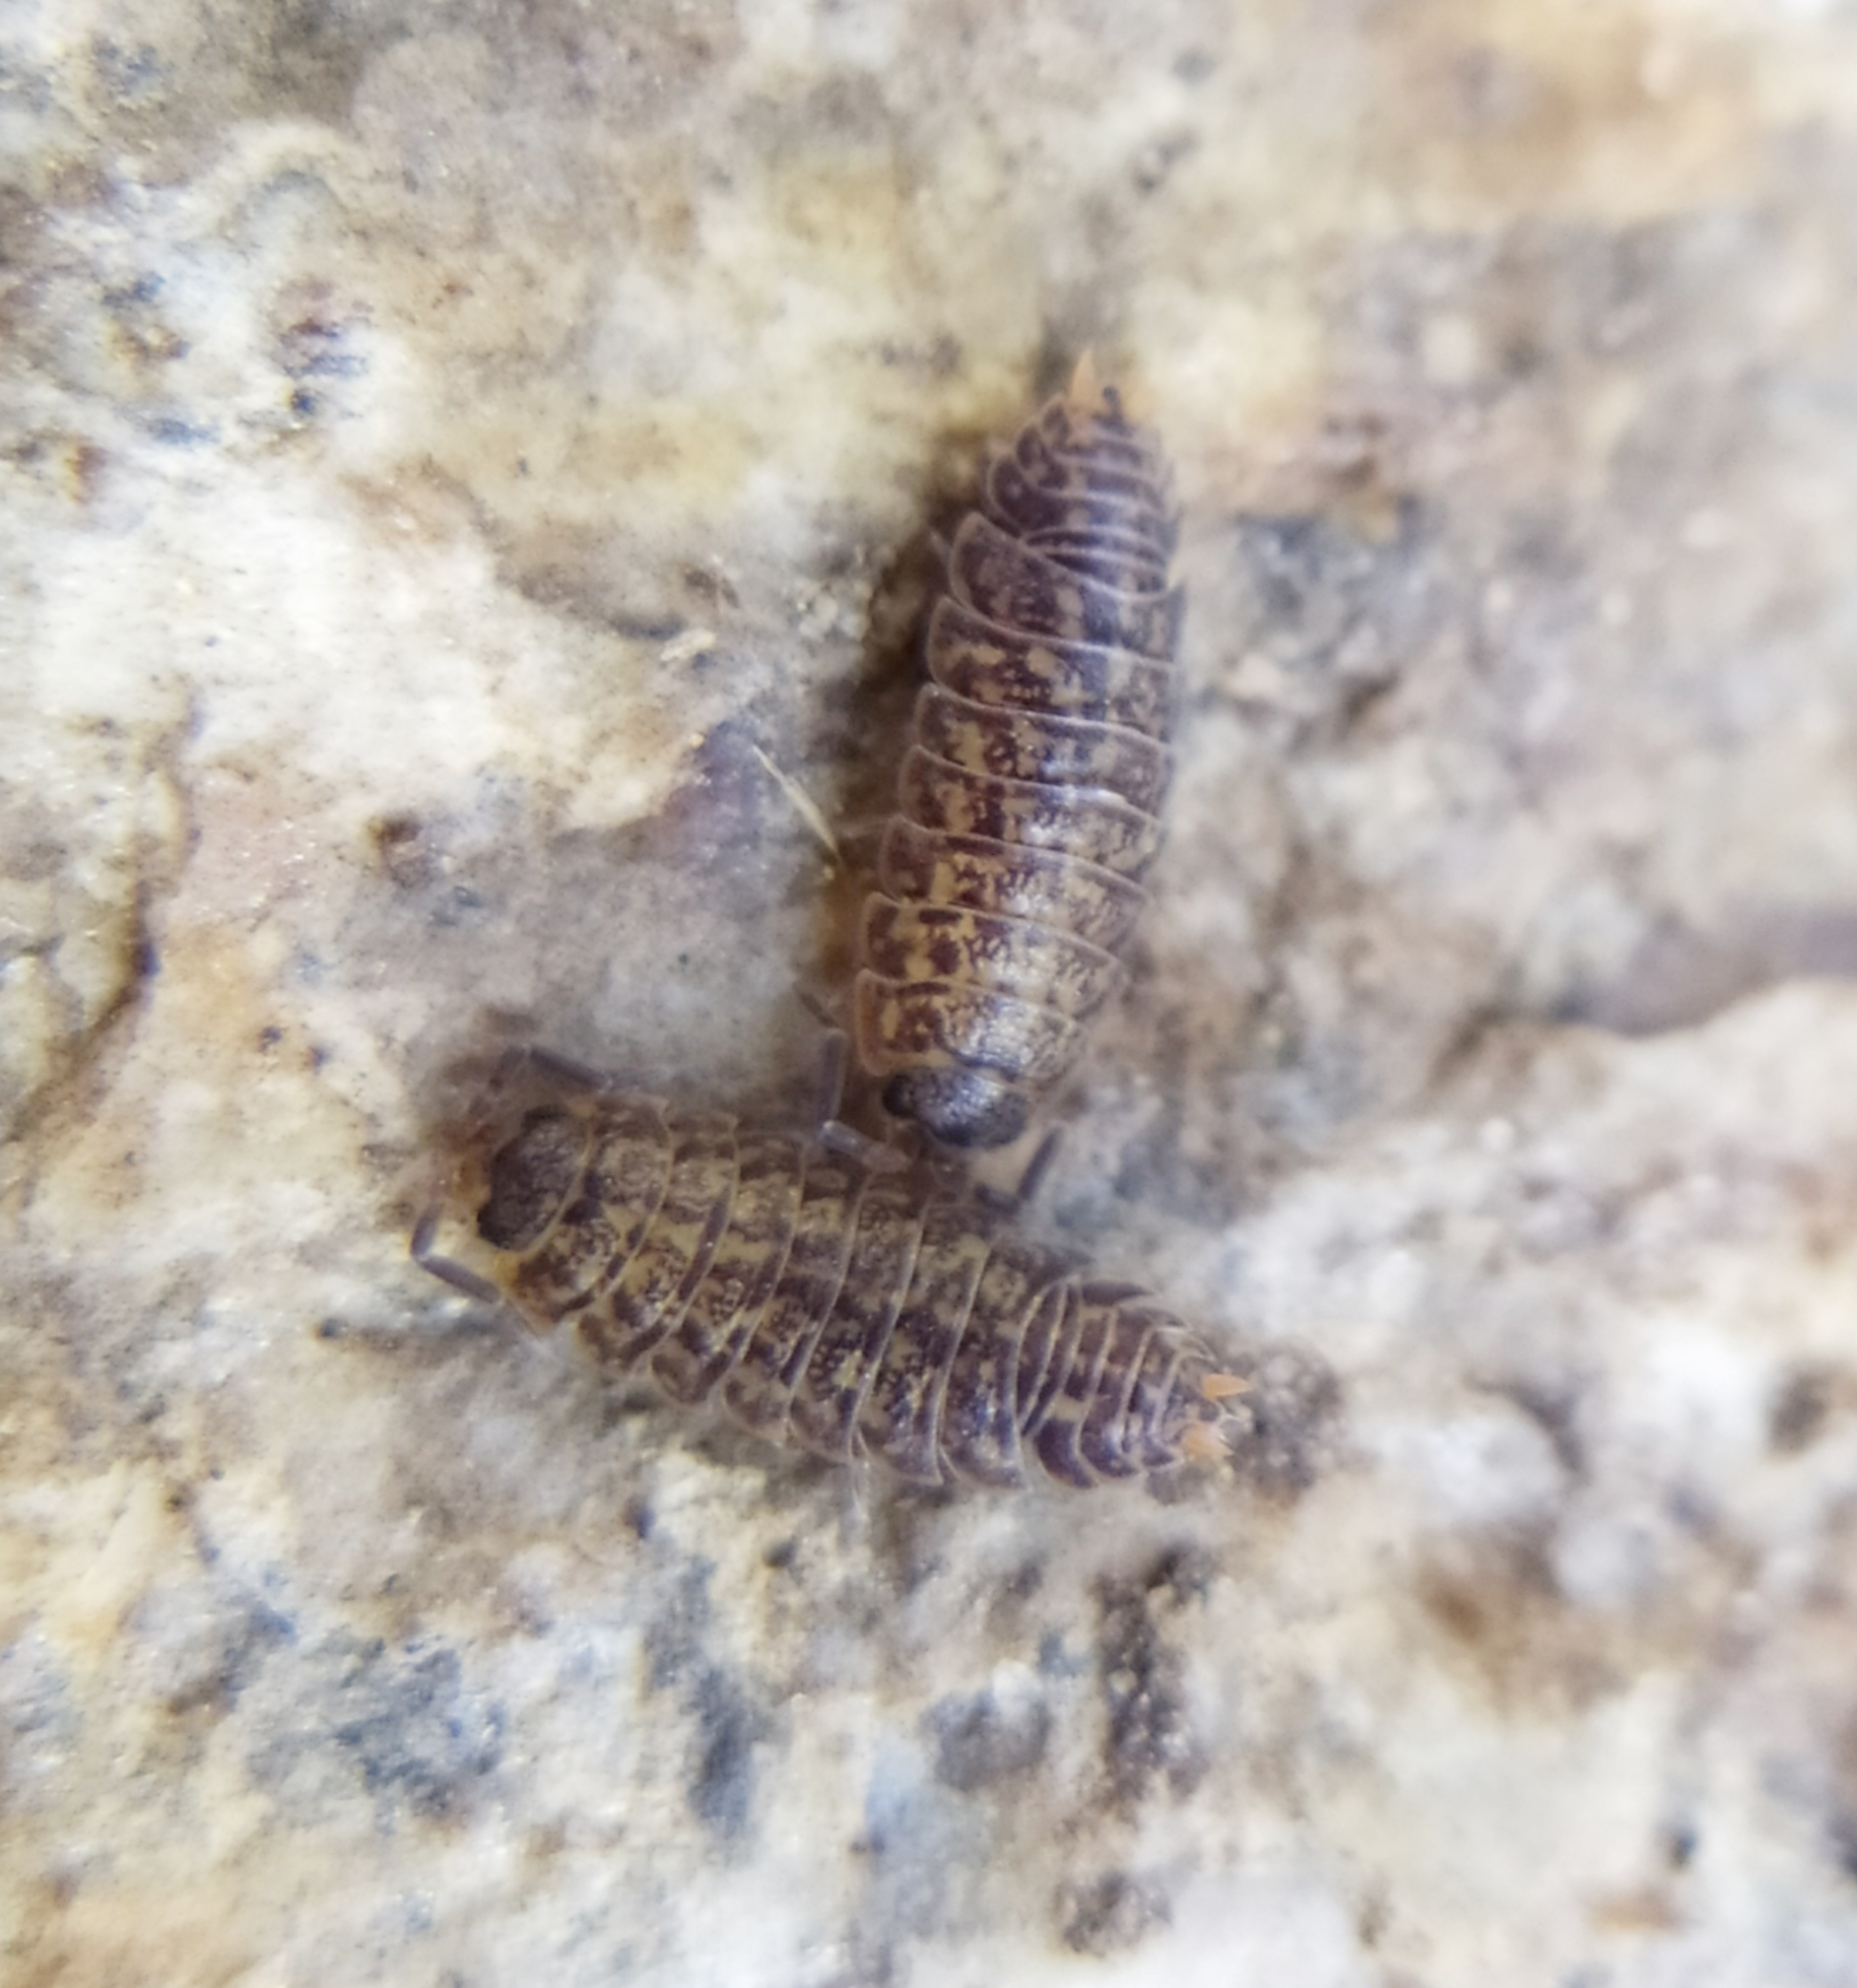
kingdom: Animalia
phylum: Arthropoda
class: Malacostraca
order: Isopoda
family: Trachelipodidae
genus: Porcellium
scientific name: Porcellium collicola
